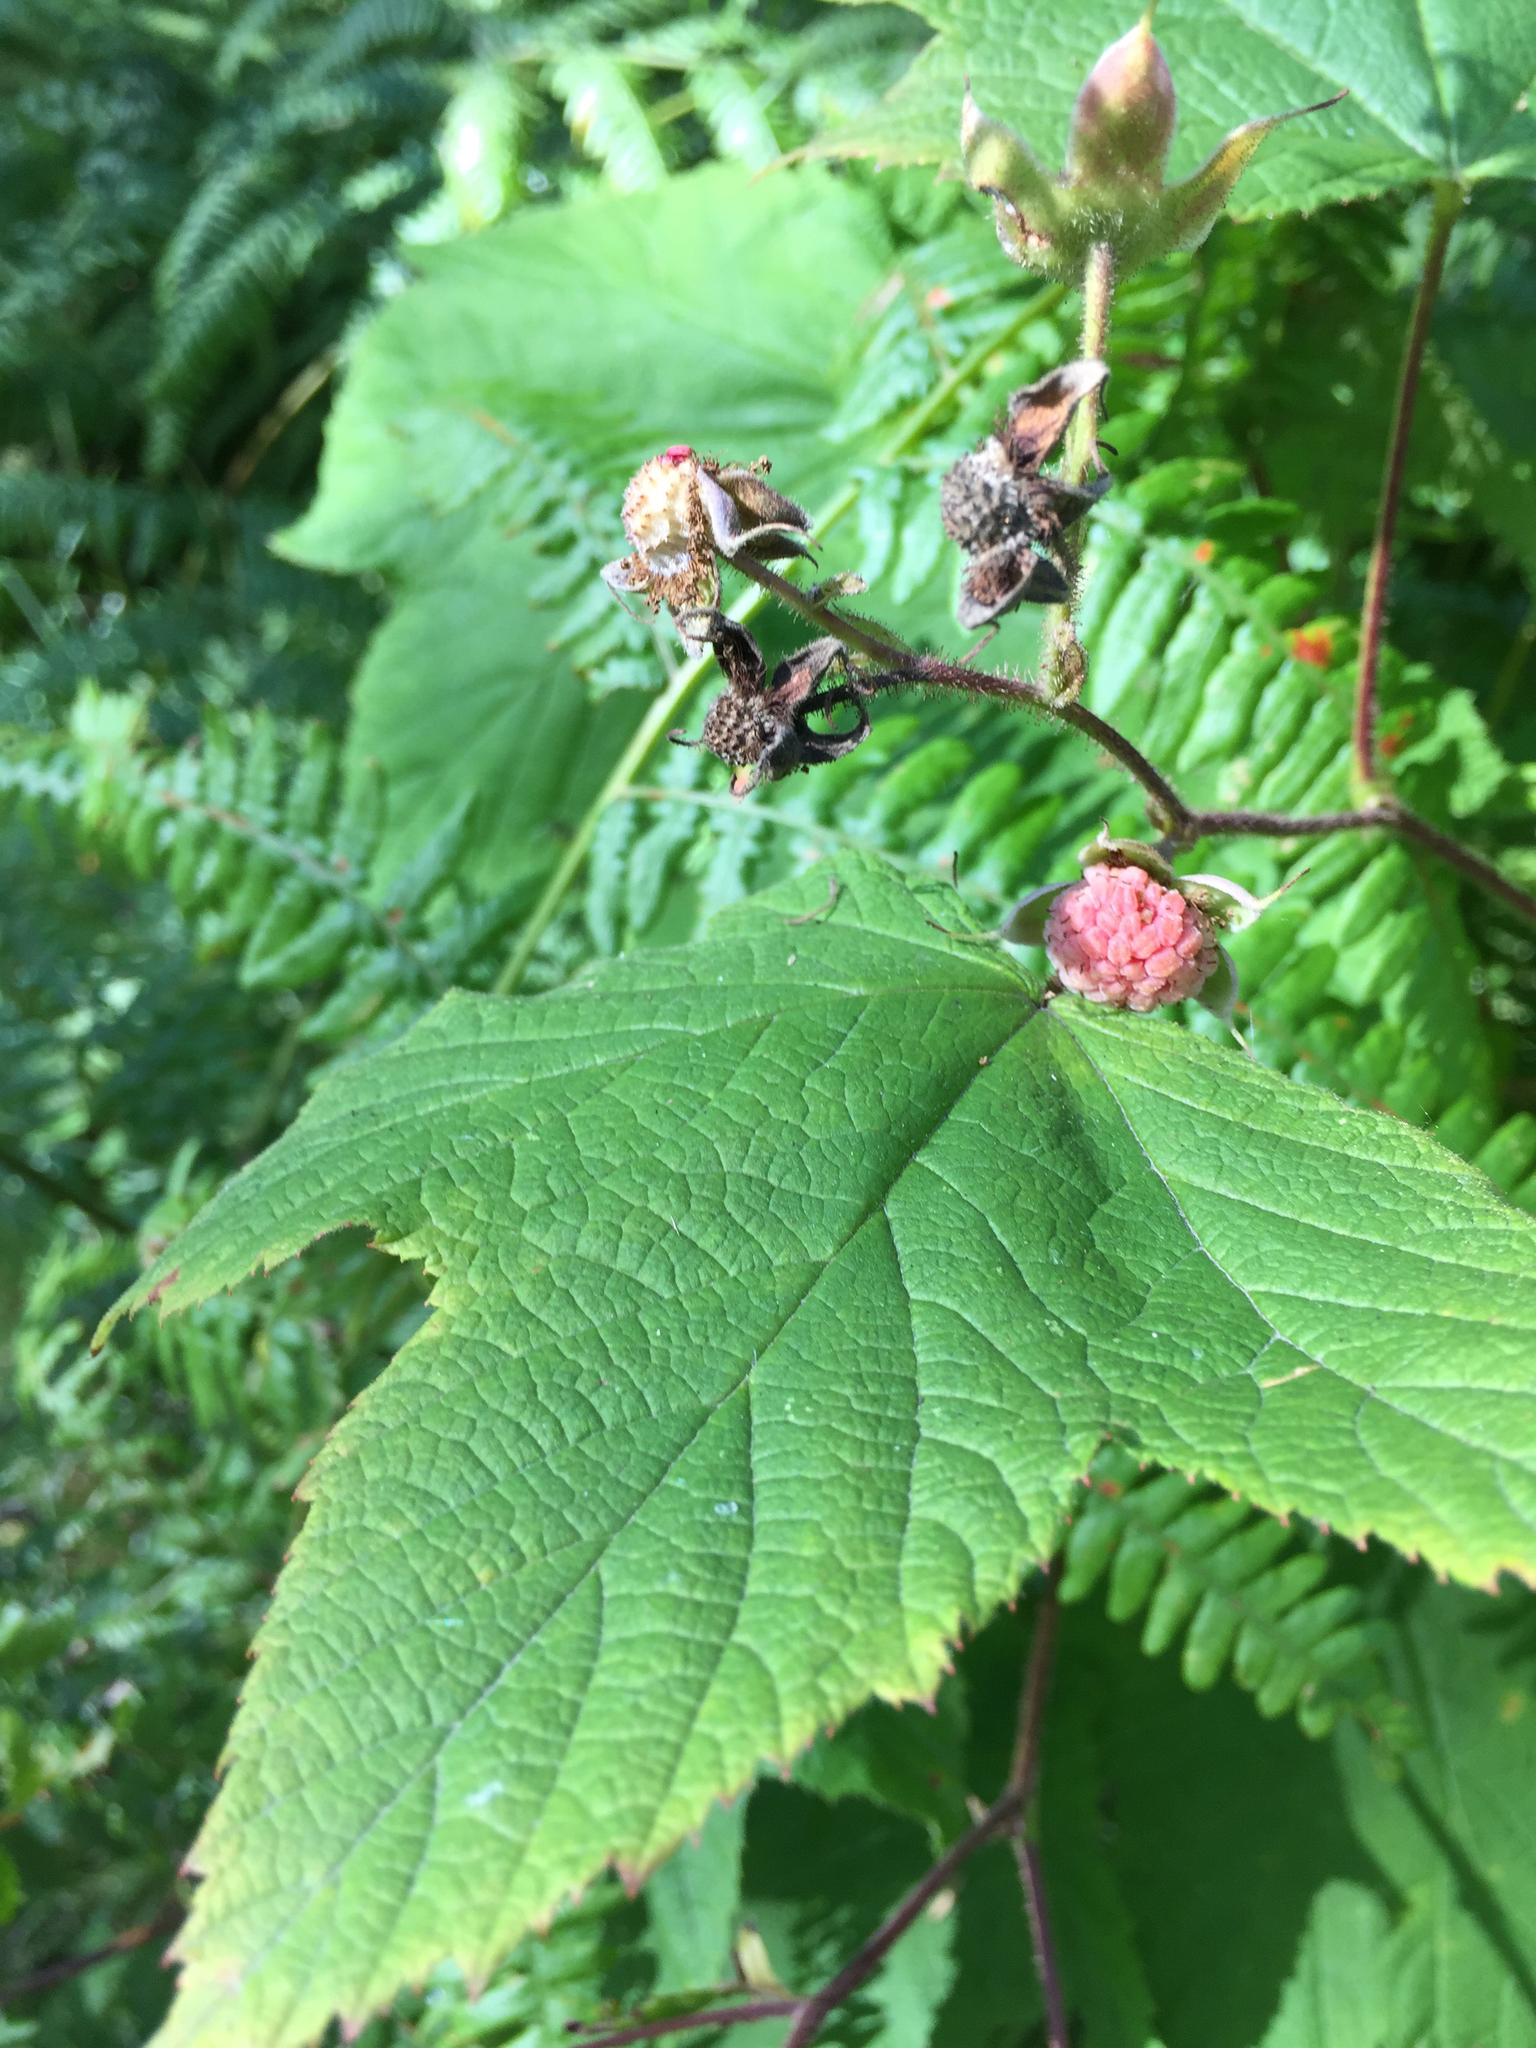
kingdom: Plantae
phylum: Tracheophyta
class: Magnoliopsida
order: Rosales
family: Rosaceae
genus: Rubus
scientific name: Rubus parviflorus
